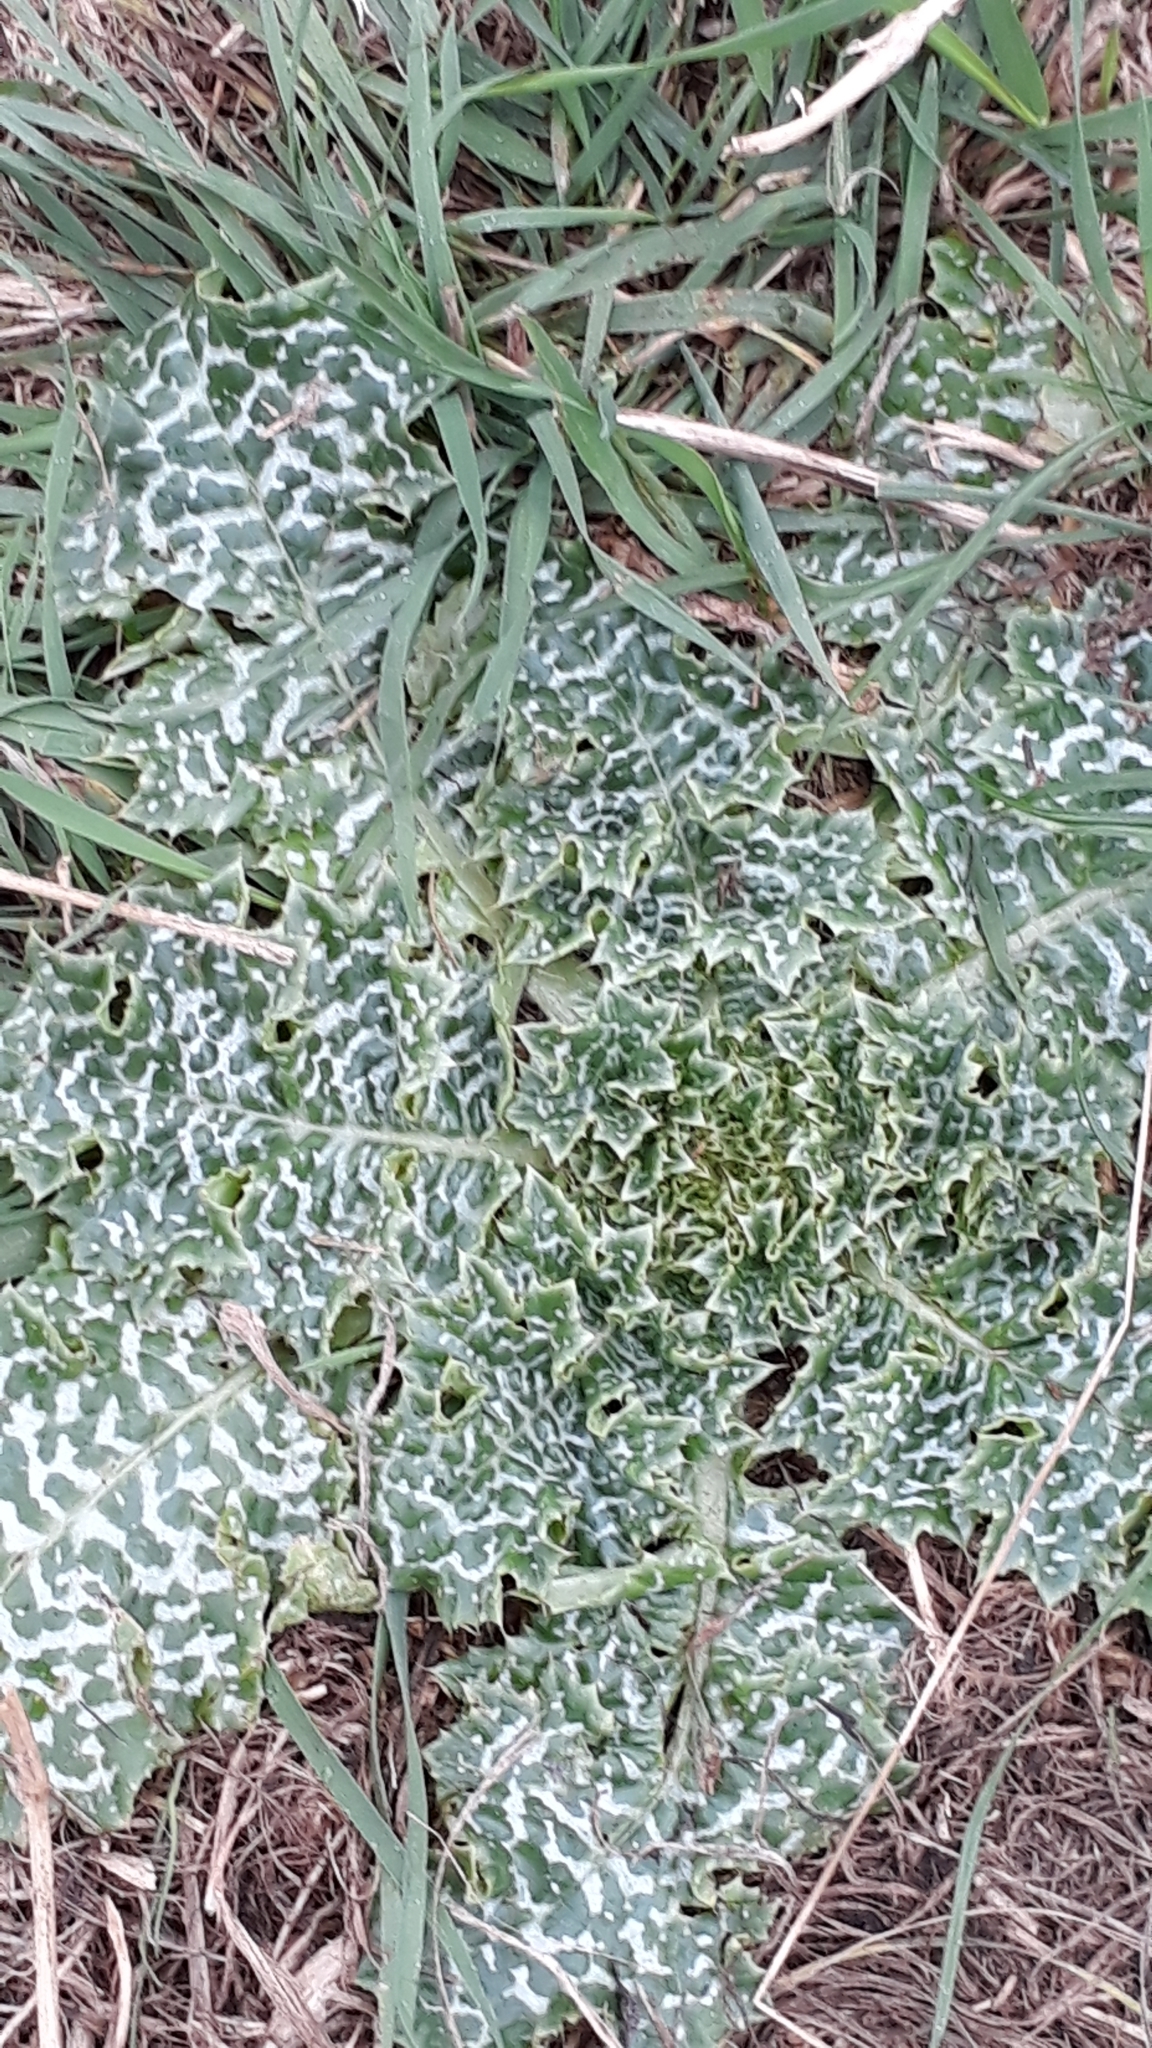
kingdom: Plantae
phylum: Tracheophyta
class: Magnoliopsida
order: Asterales
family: Asteraceae
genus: Silybum
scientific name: Silybum marianum
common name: Milk thistle
